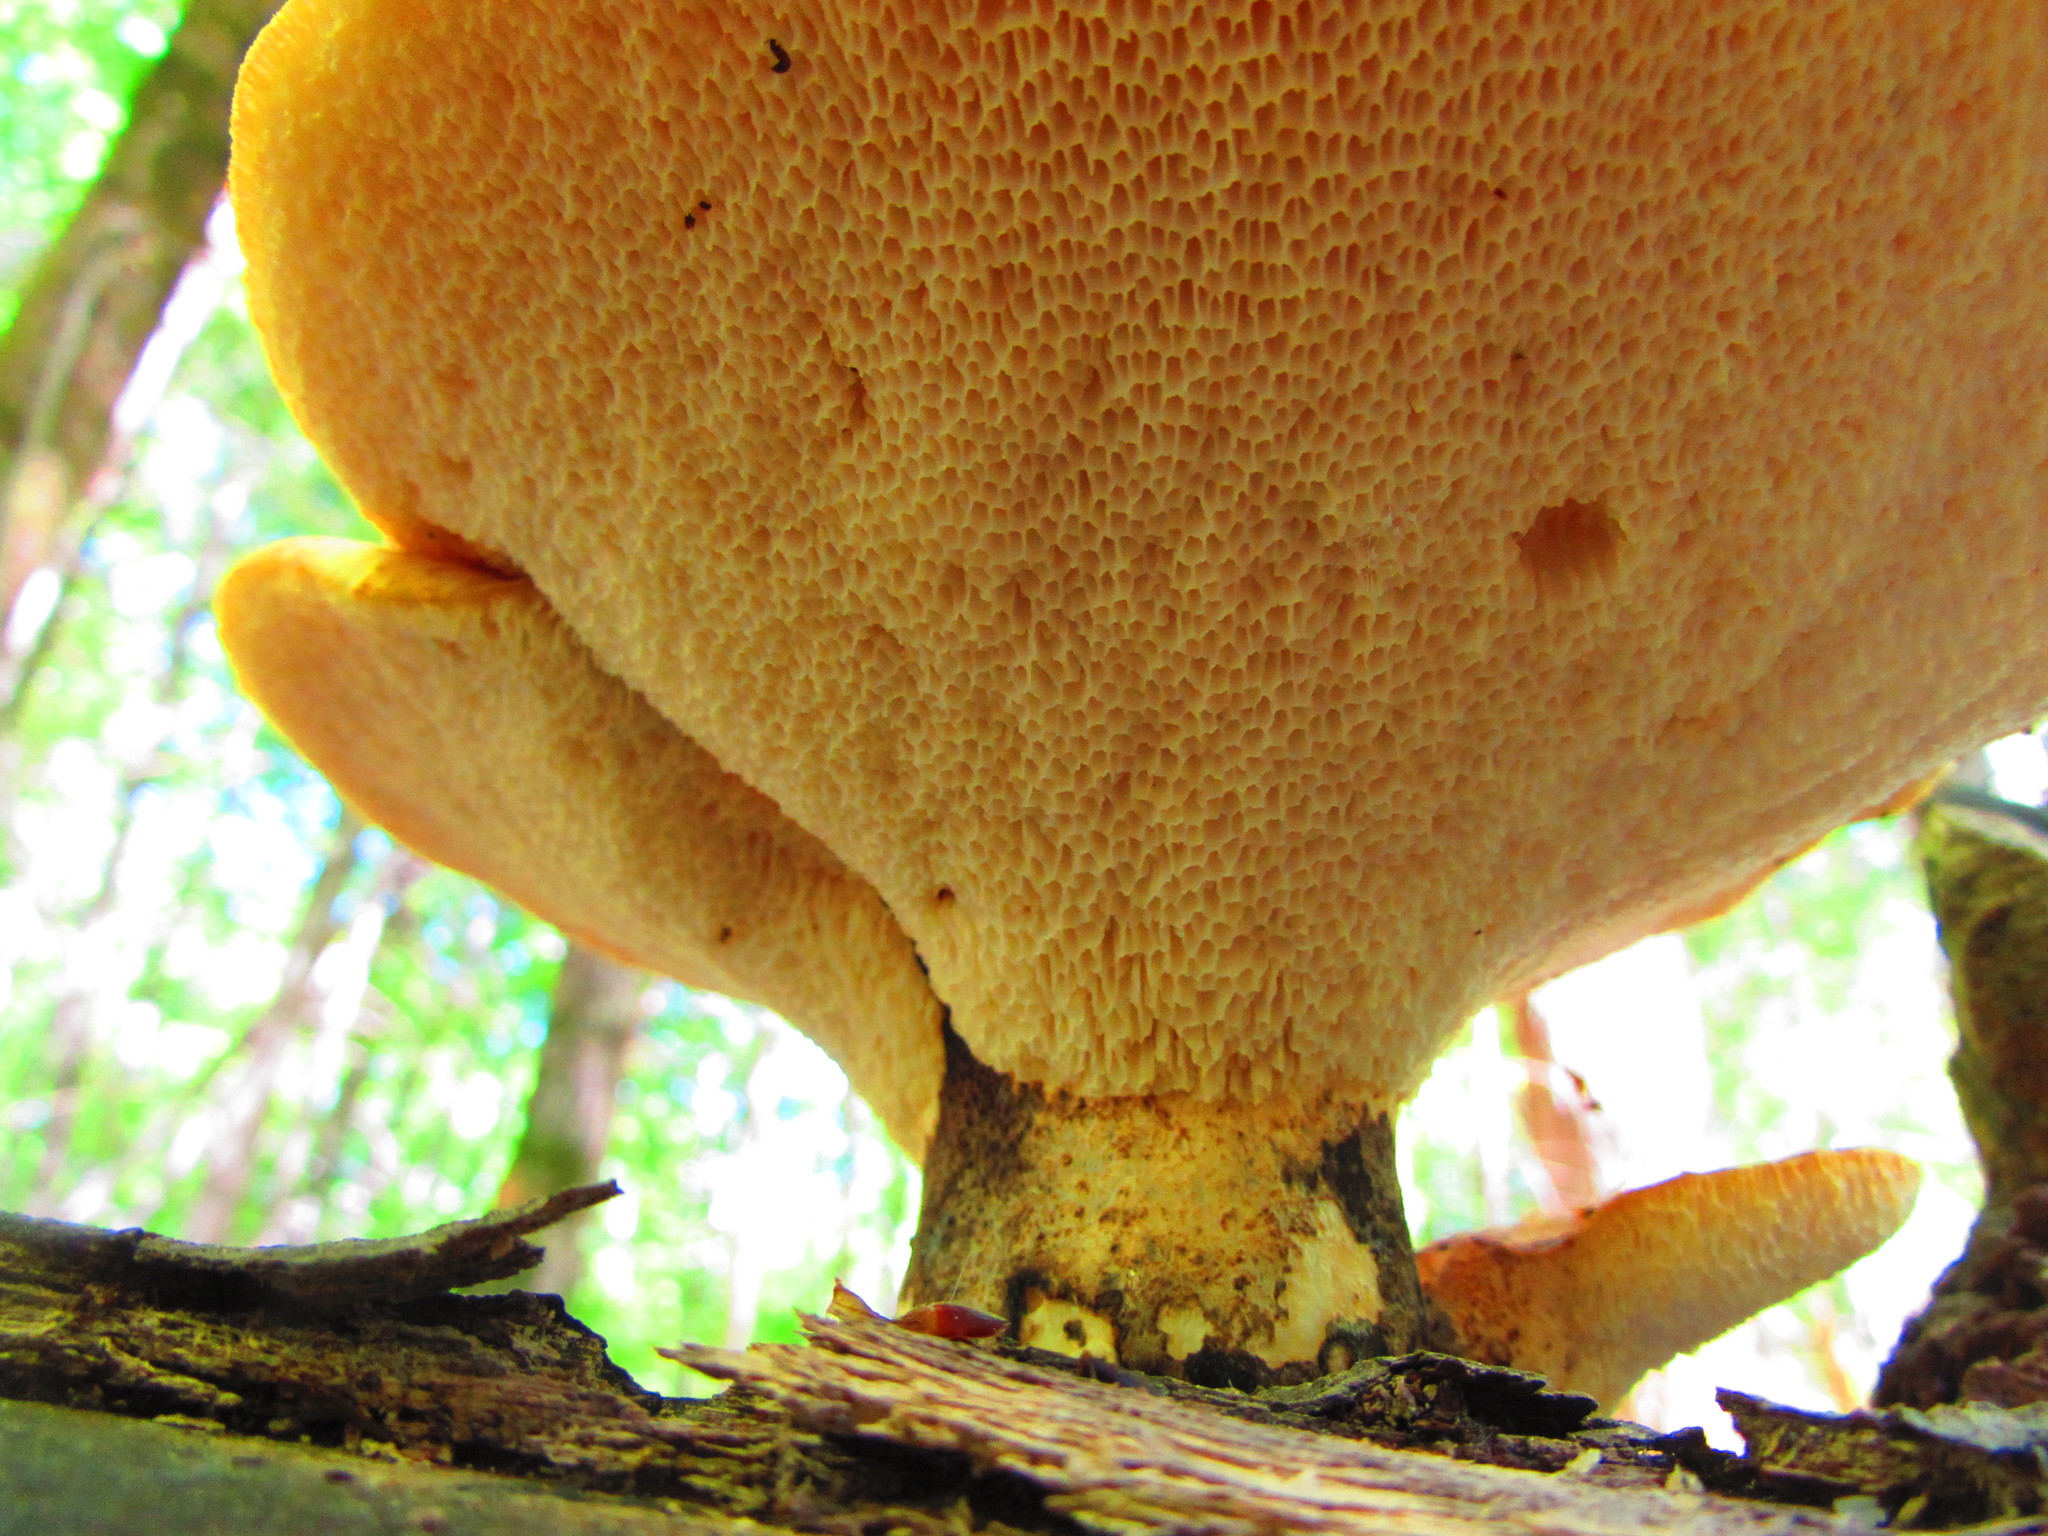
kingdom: Fungi
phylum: Basidiomycota
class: Agaricomycetes
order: Polyporales
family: Polyporaceae
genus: Cerioporus
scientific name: Cerioporus squamosus
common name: Dryad's saddle
